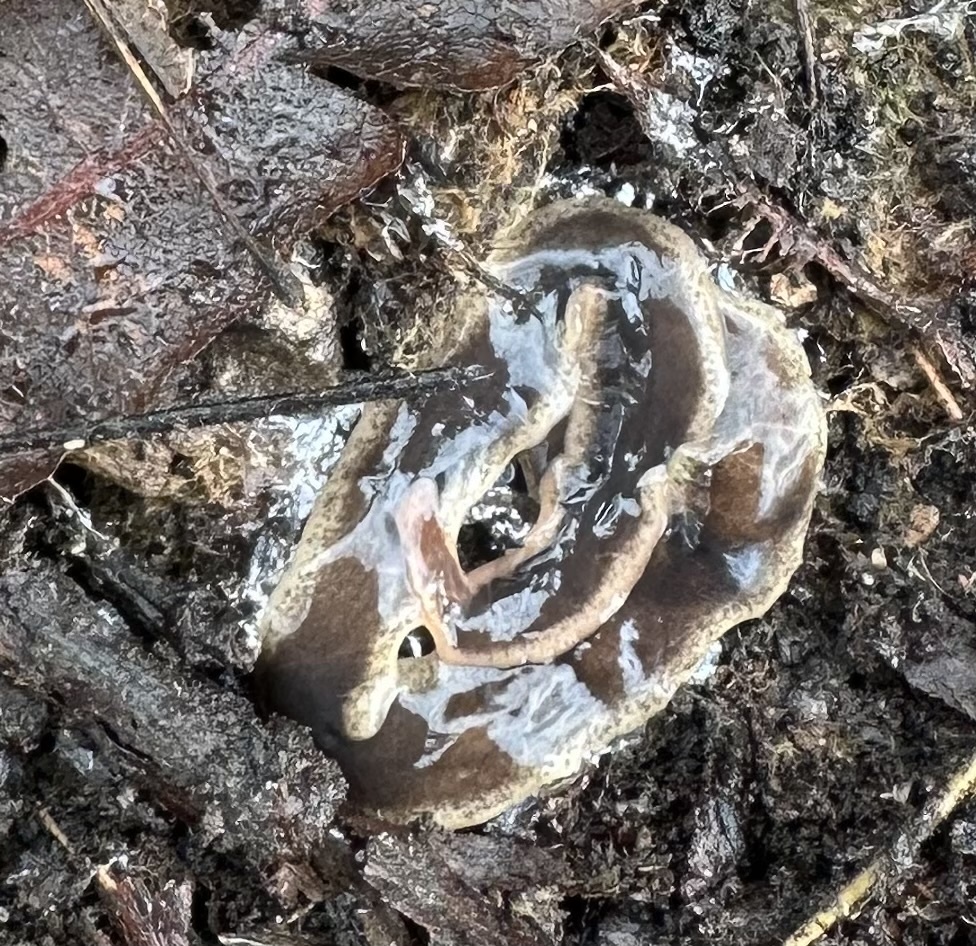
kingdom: Animalia
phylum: Platyhelminthes
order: Tricladida
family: Geoplanidae
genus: Arthurdendyus
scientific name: Arthurdendyus triangulatus
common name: New zealand flatworm
